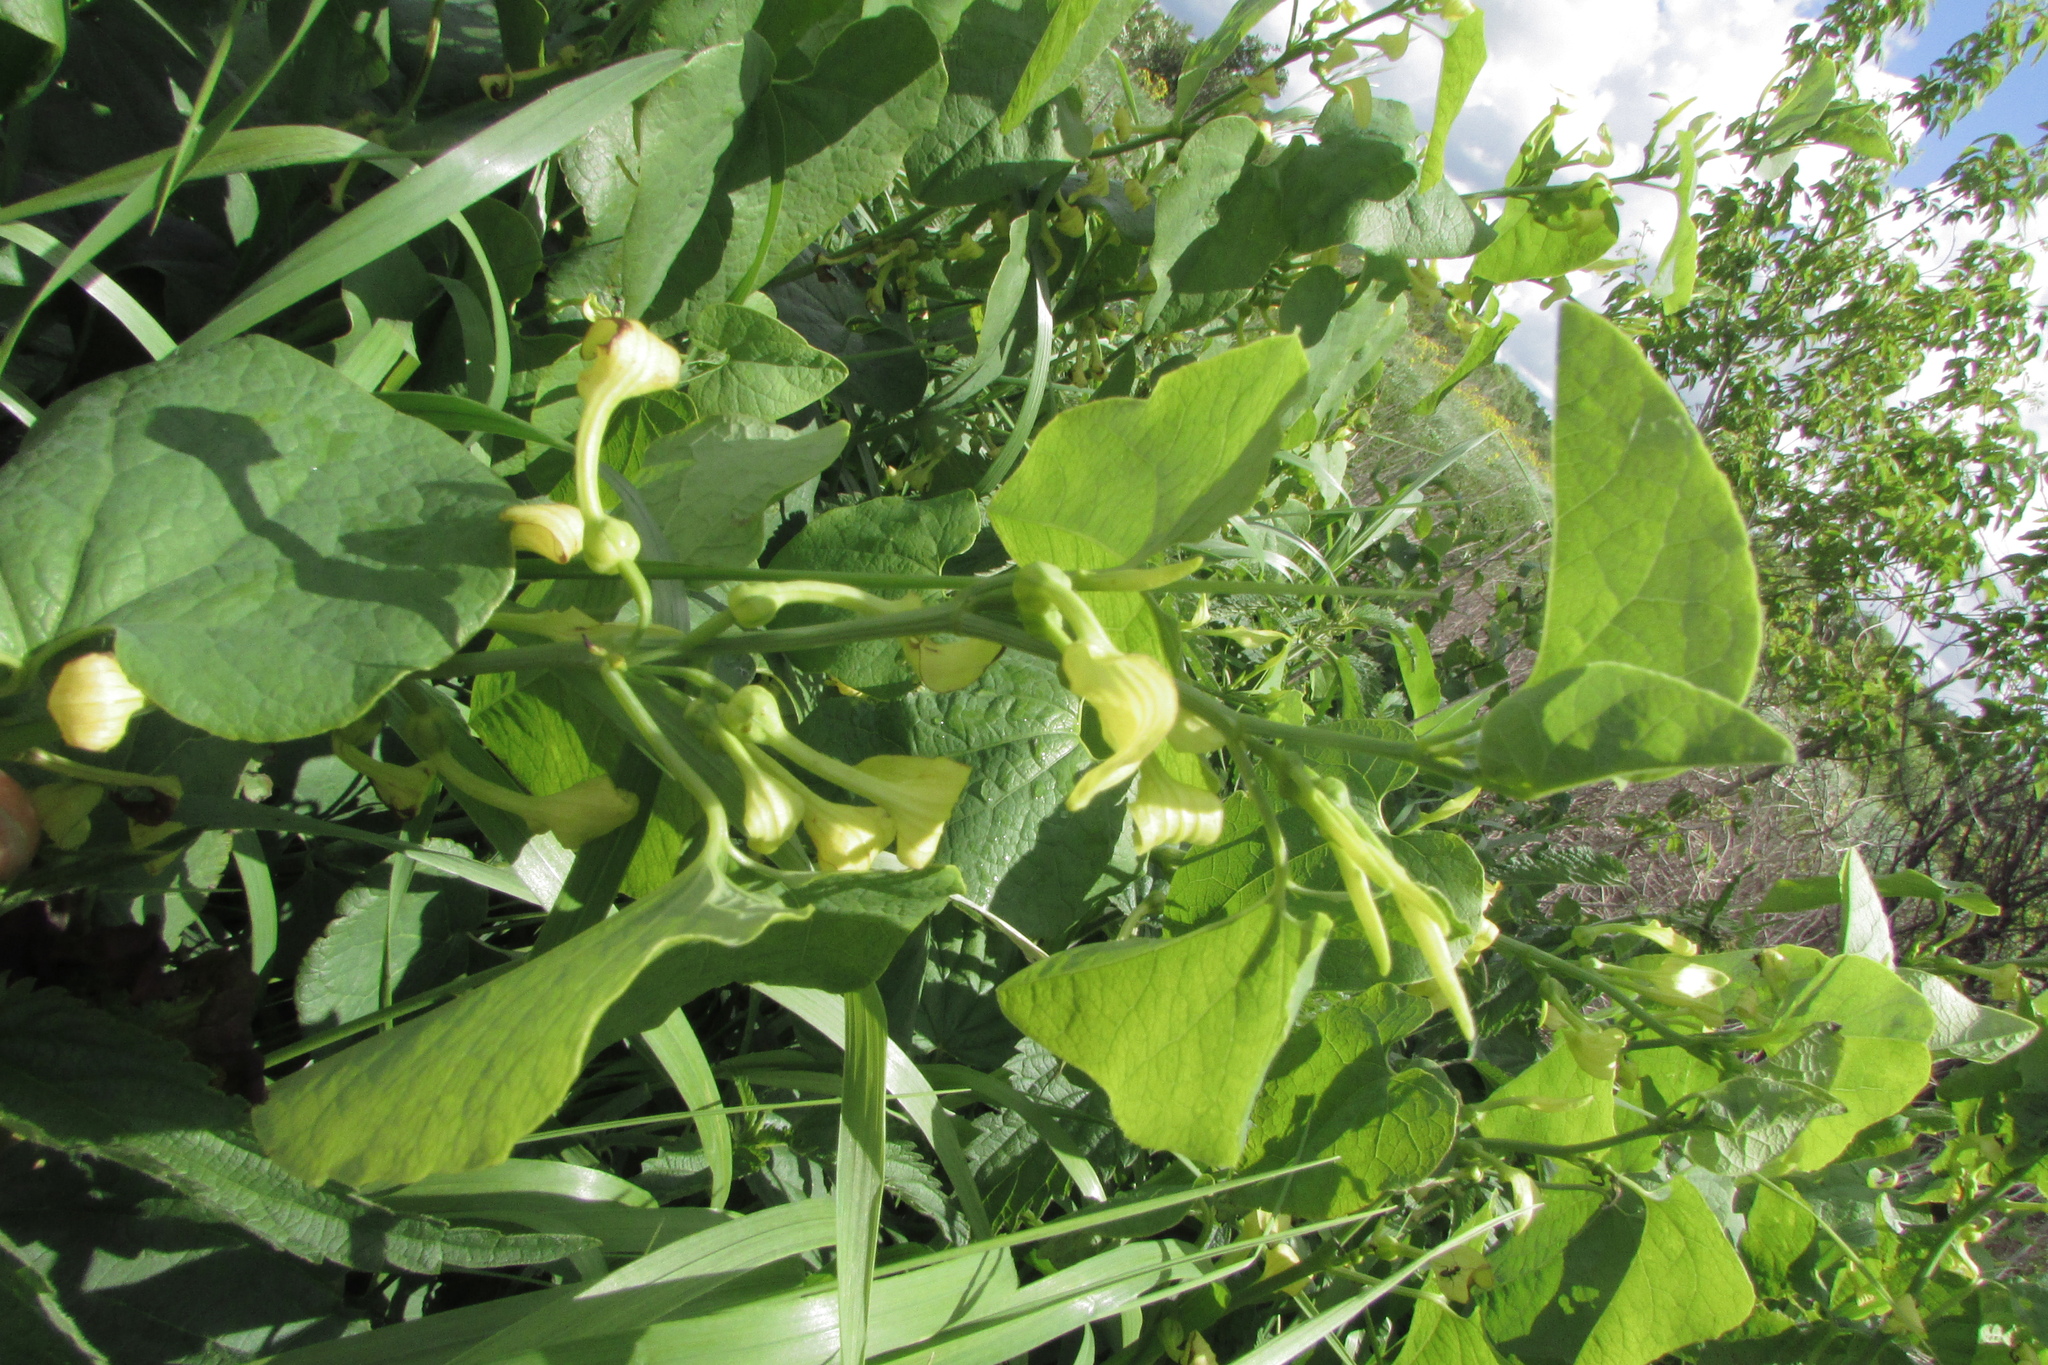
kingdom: Plantae
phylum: Tracheophyta
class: Magnoliopsida
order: Piperales
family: Aristolochiaceae
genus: Aristolochia
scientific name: Aristolochia clematitis
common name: Birthwort
